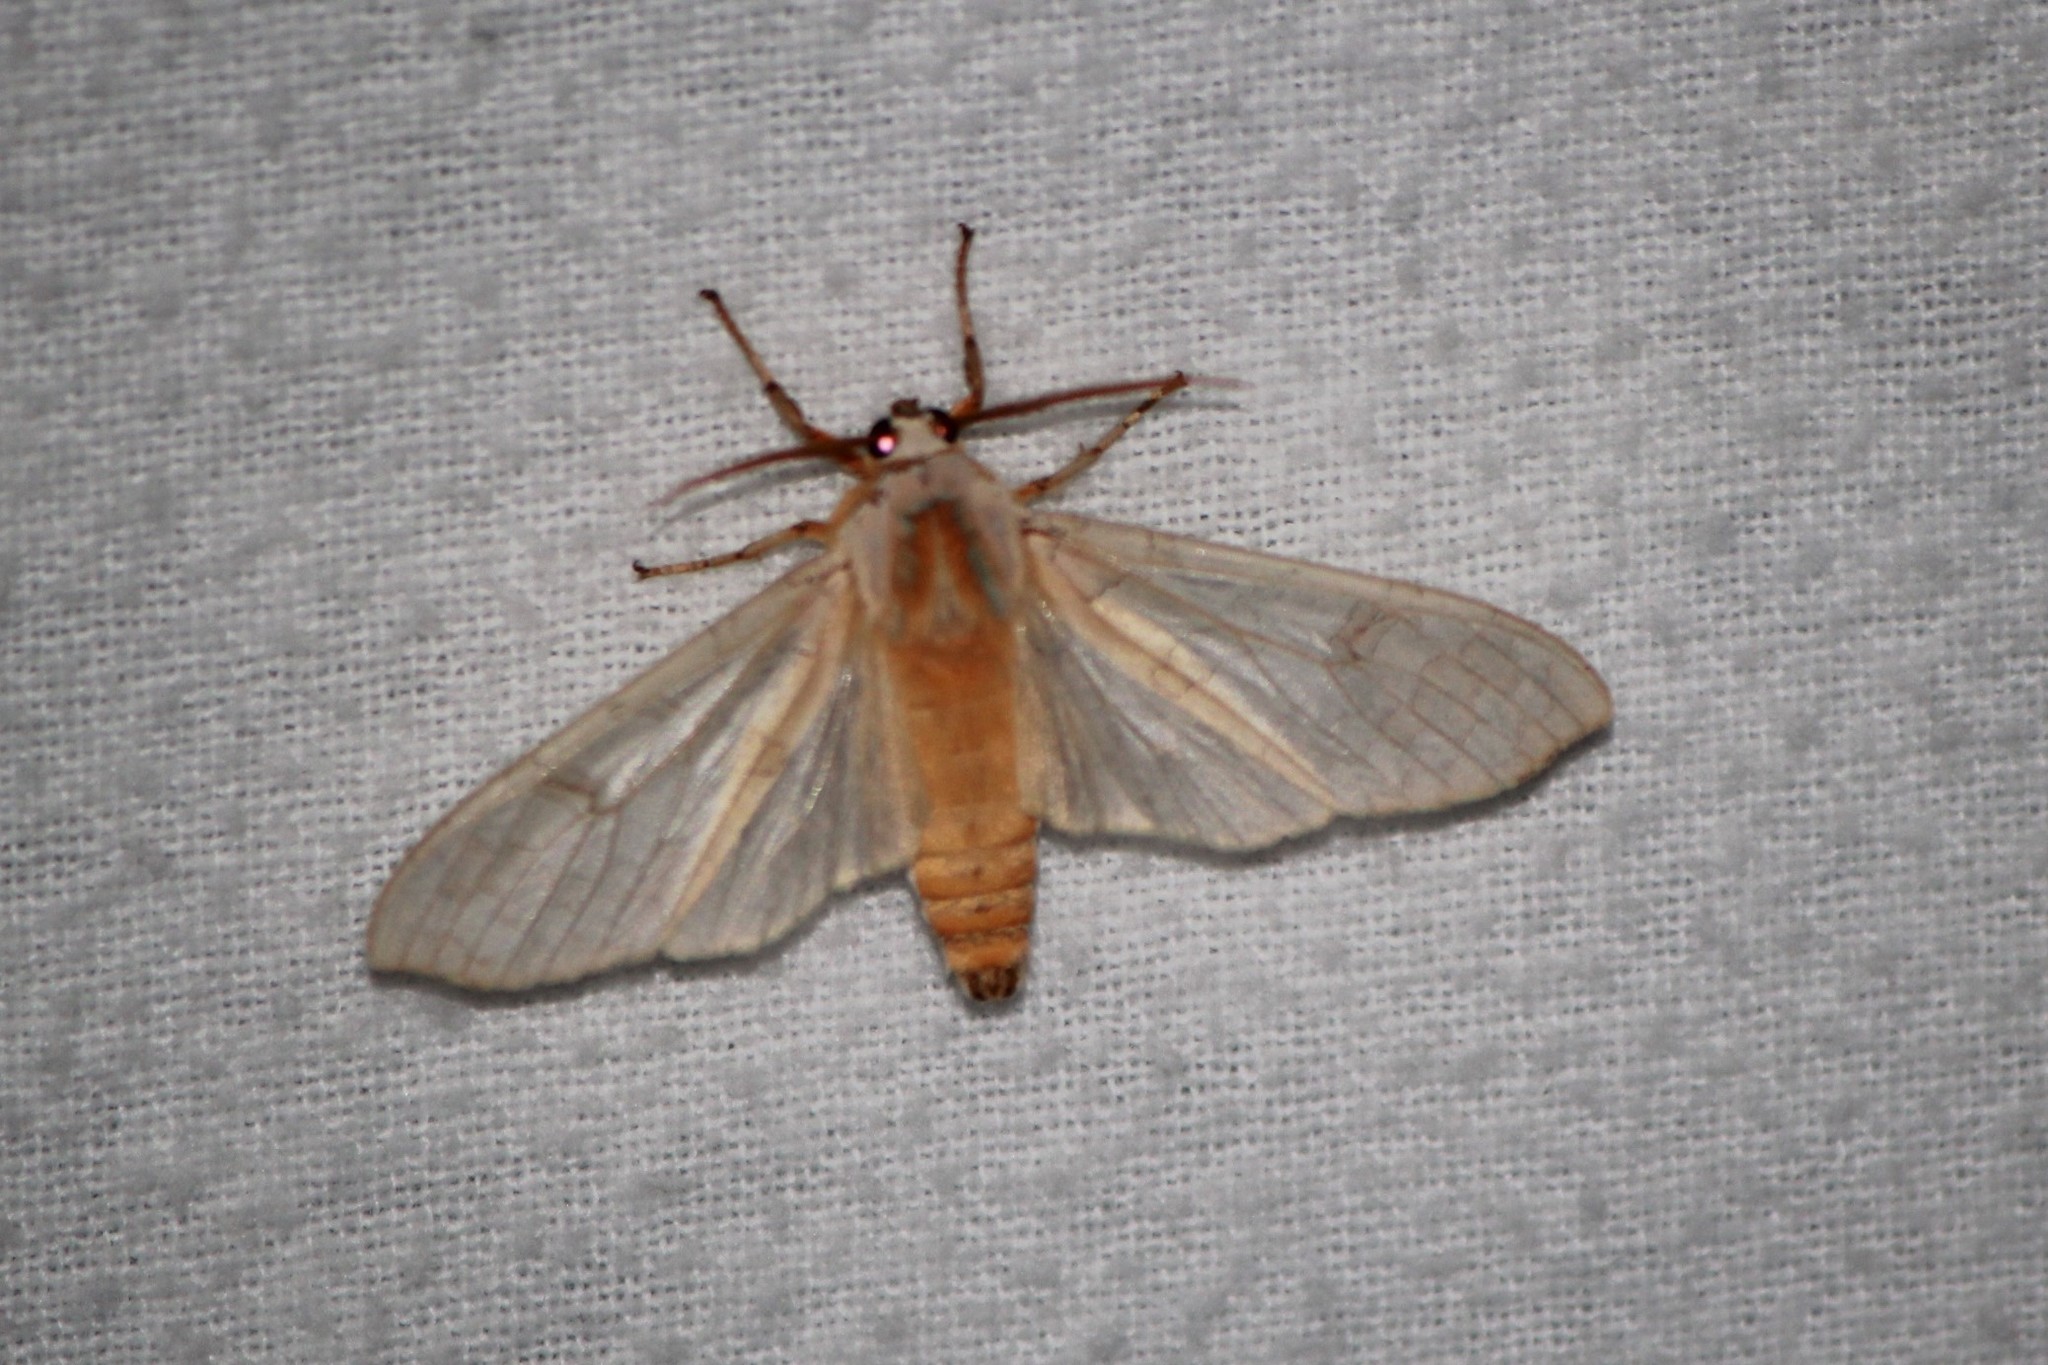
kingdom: Animalia
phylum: Arthropoda
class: Insecta
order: Lepidoptera
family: Erebidae
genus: Halysidota
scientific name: Halysidota tessellaris
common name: Banded tussock moth
